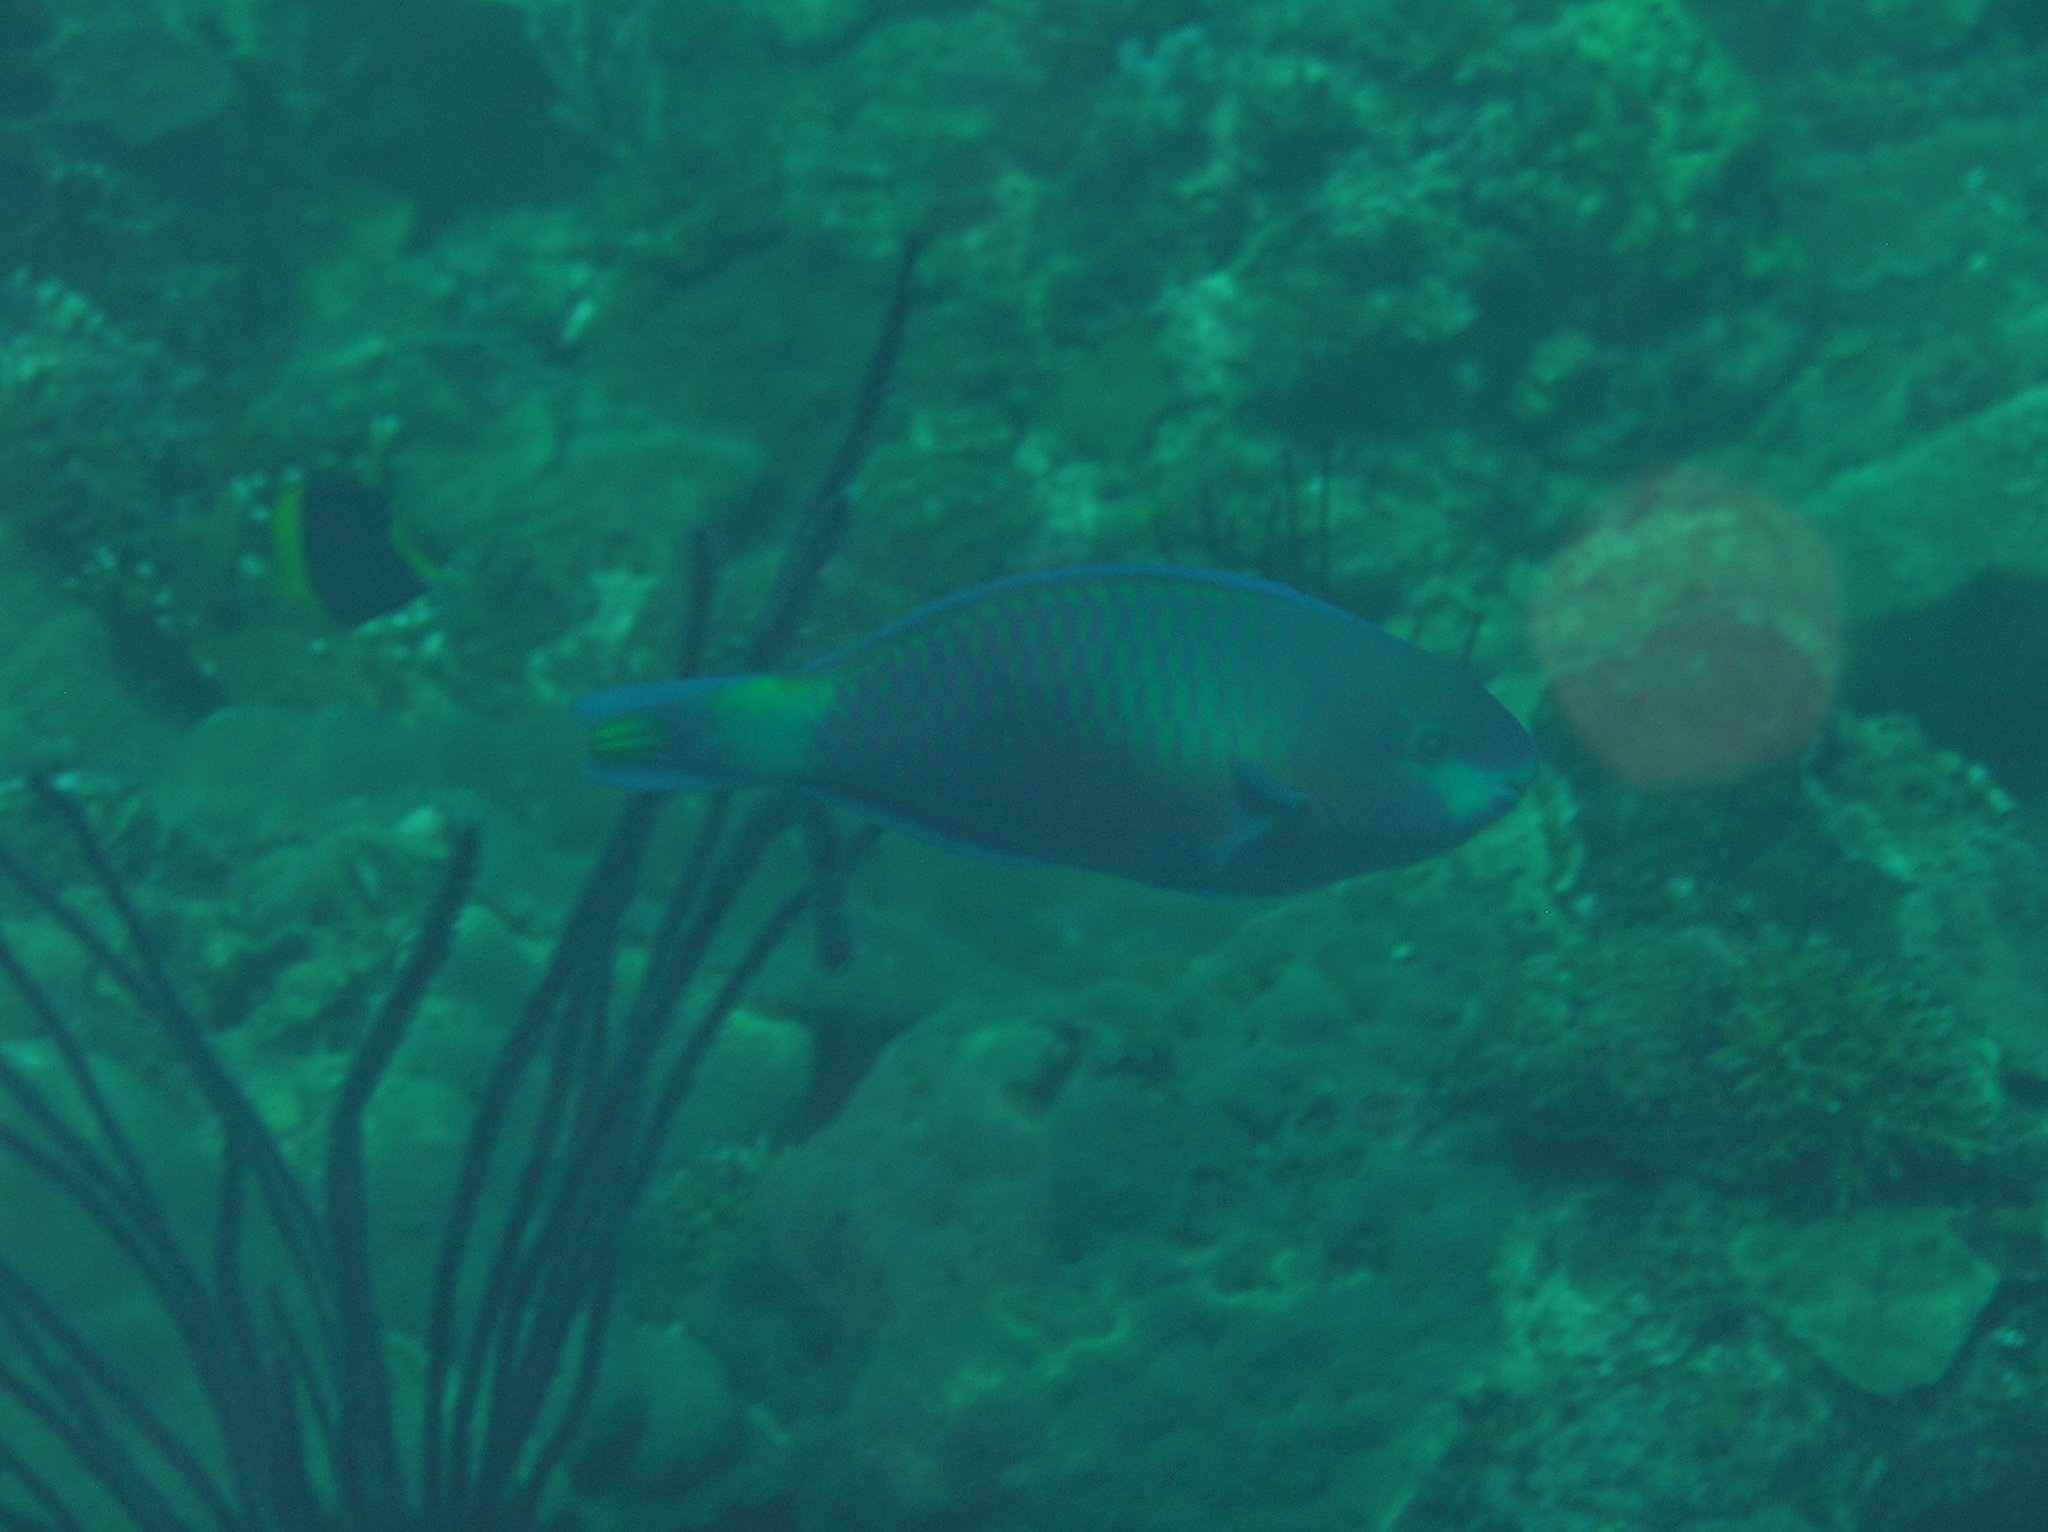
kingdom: Animalia
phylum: Chordata
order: Perciformes
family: Scaridae
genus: Scarus
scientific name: Scarus quoyi
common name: Quoy's parrotfish
